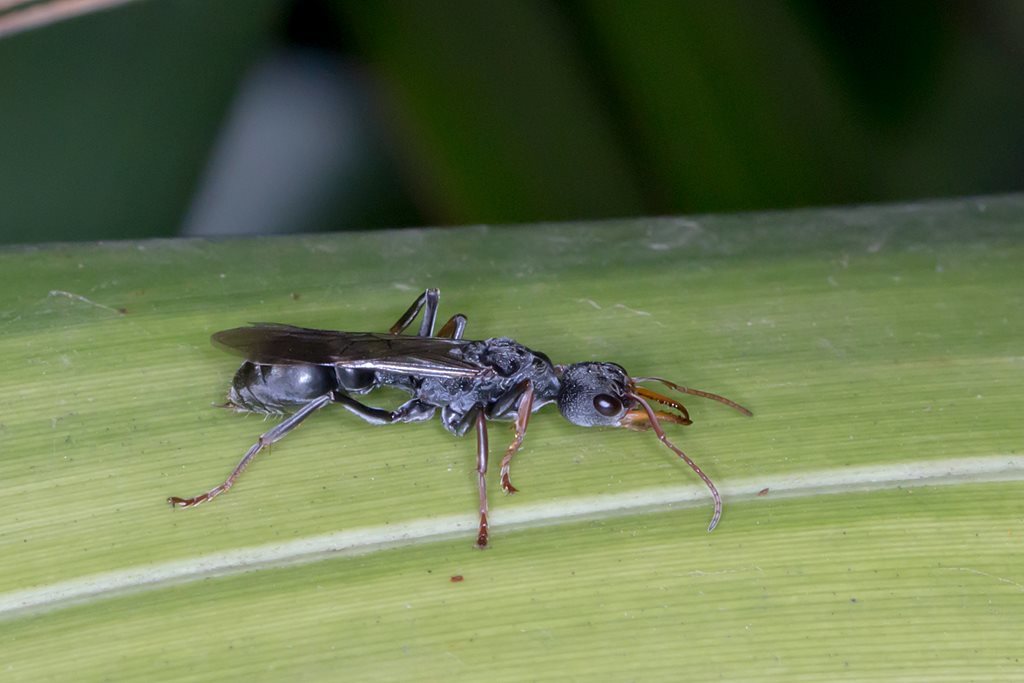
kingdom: Animalia
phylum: Arthropoda
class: Insecta
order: Hymenoptera
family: Formicidae
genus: Myrmecia
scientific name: Myrmecia pilosula
